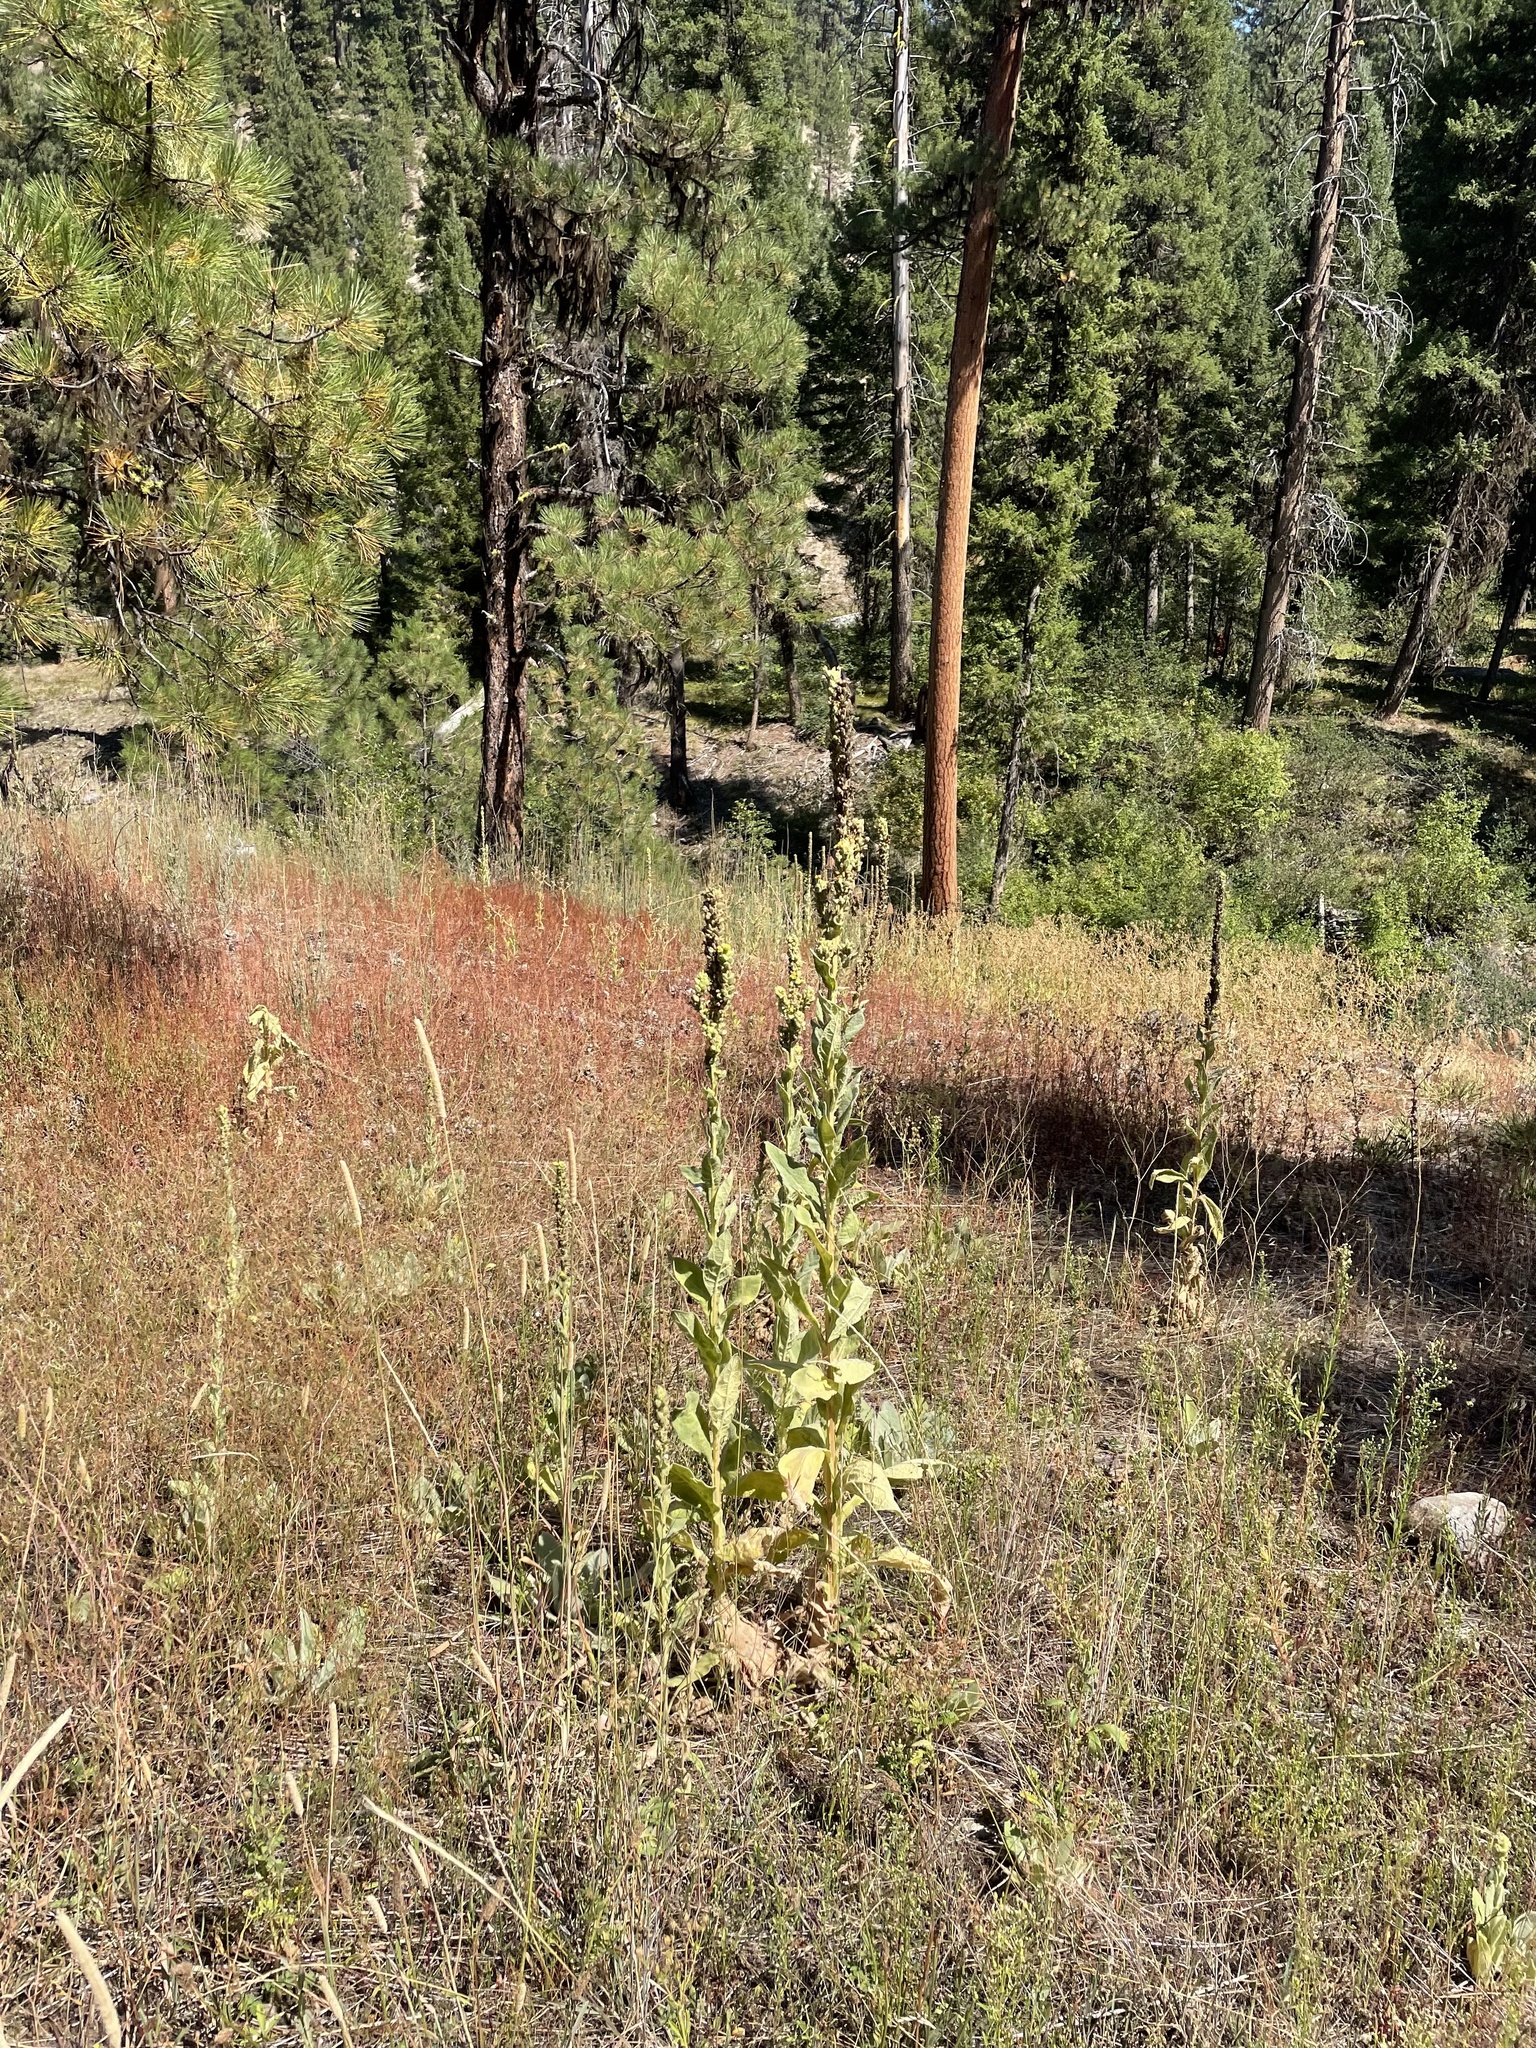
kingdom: Plantae
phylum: Tracheophyta
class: Magnoliopsida
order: Lamiales
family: Scrophulariaceae
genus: Verbascum
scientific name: Verbascum thapsus
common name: Common mullein
